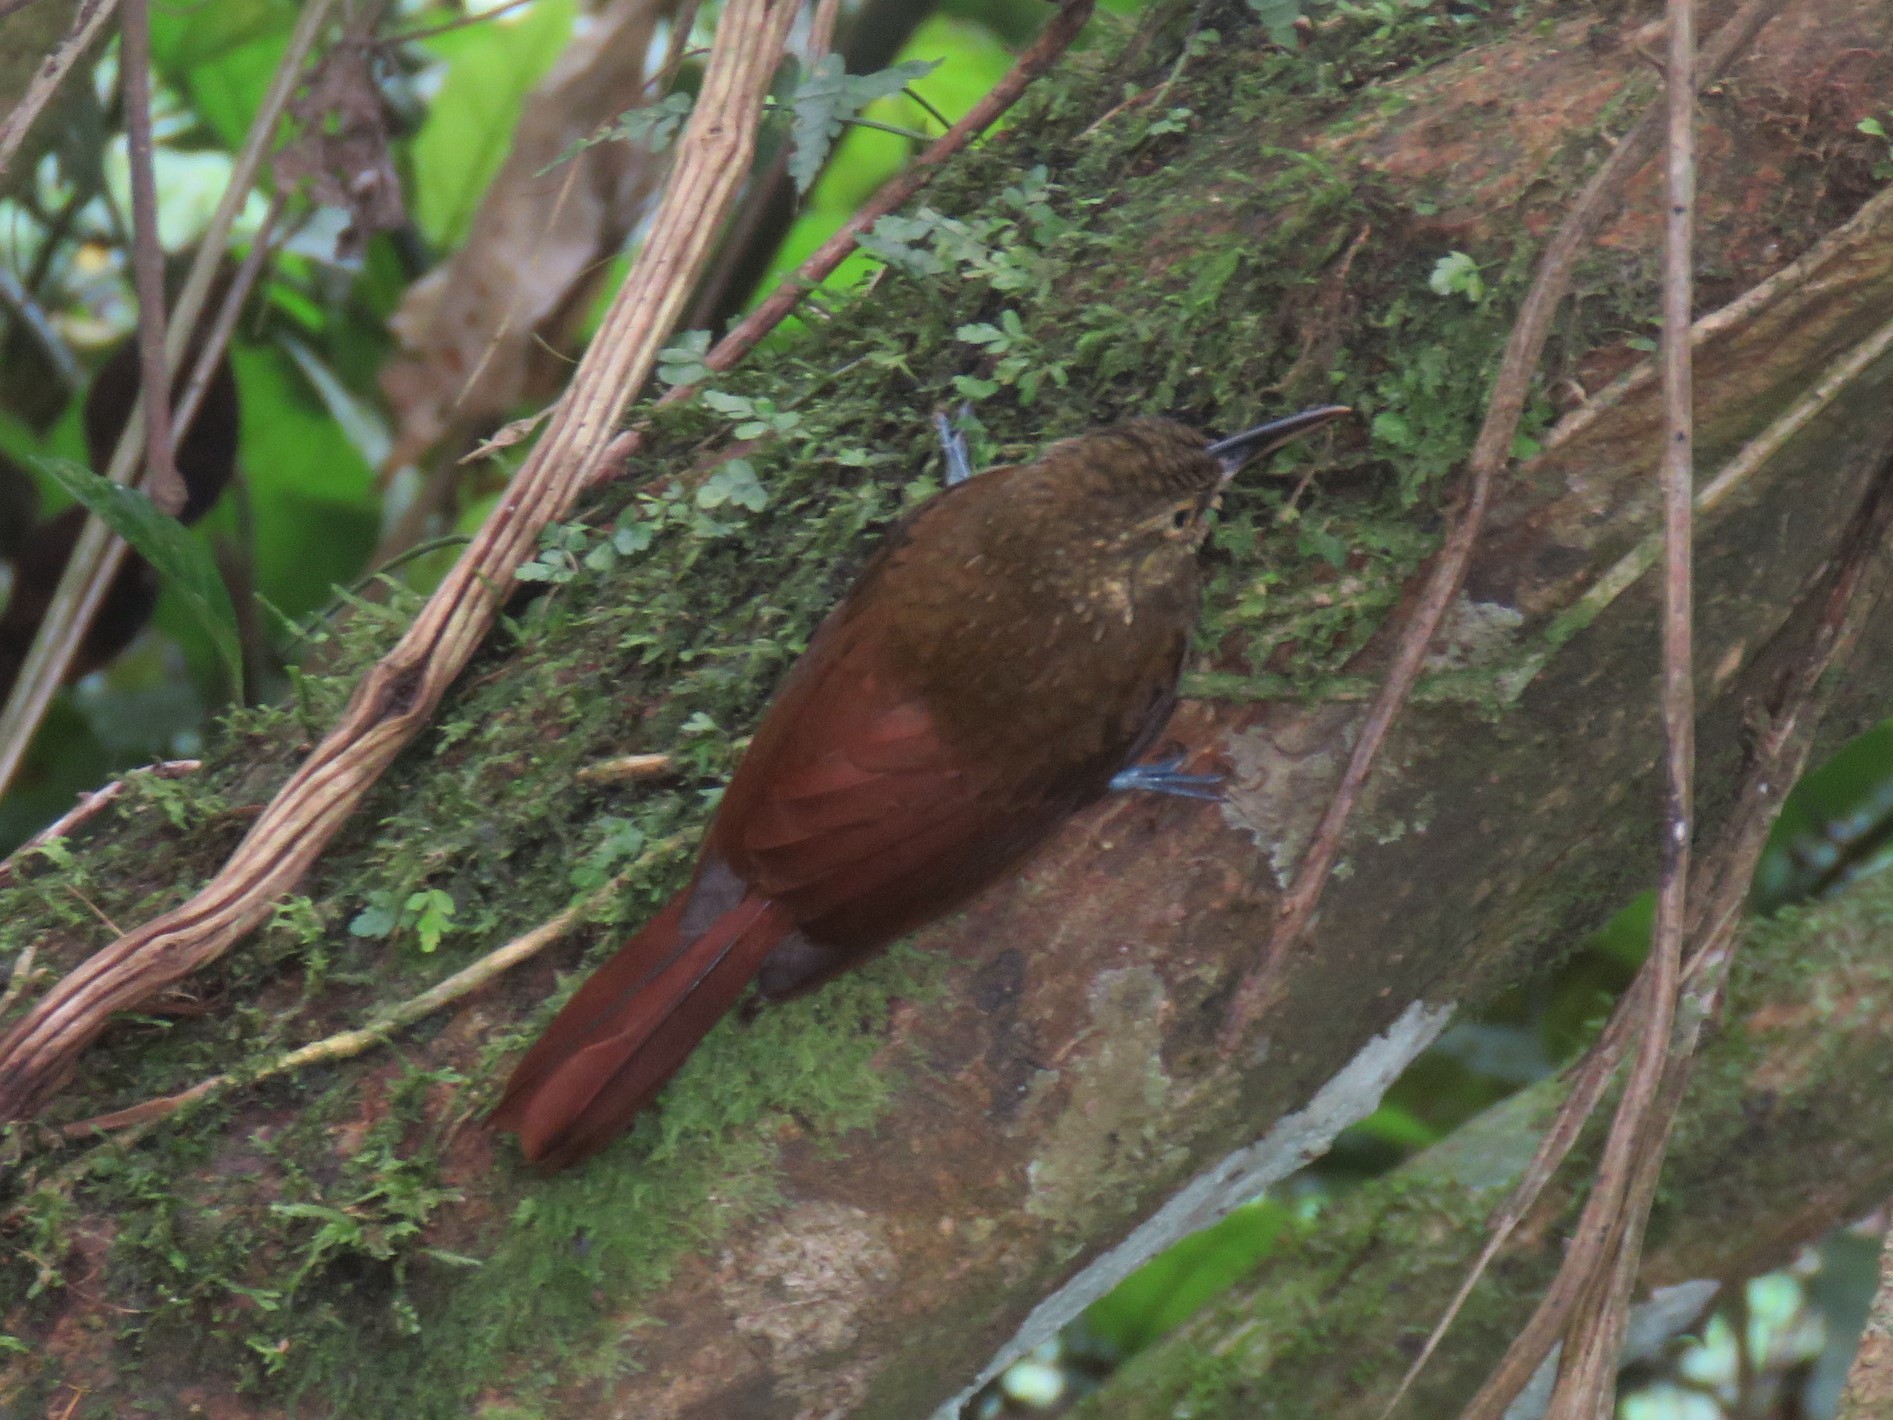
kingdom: Animalia
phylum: Chordata
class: Aves
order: Passeriformes
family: Furnariidae
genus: Xiphorhynchus
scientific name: Xiphorhynchus erythropygius
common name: Spotted woodcreeper
